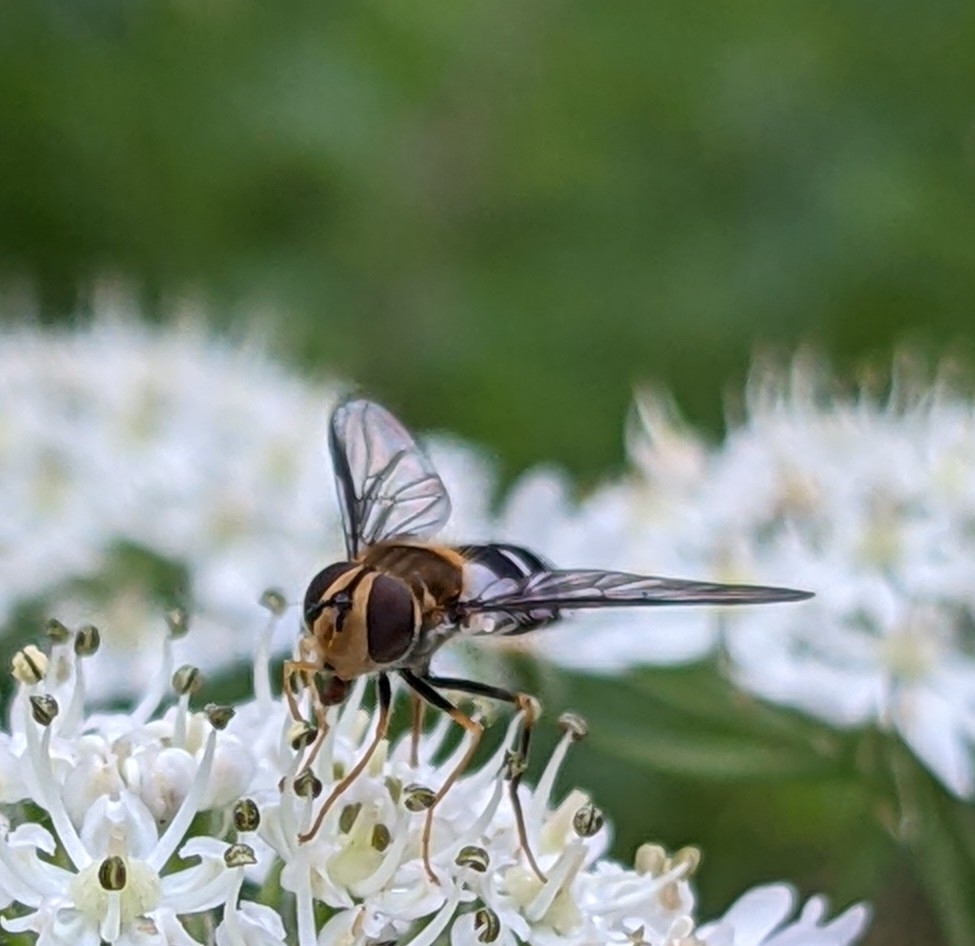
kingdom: Animalia
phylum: Arthropoda
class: Insecta
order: Diptera
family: Syrphidae
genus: Leucozona
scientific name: Leucozona glaucia
